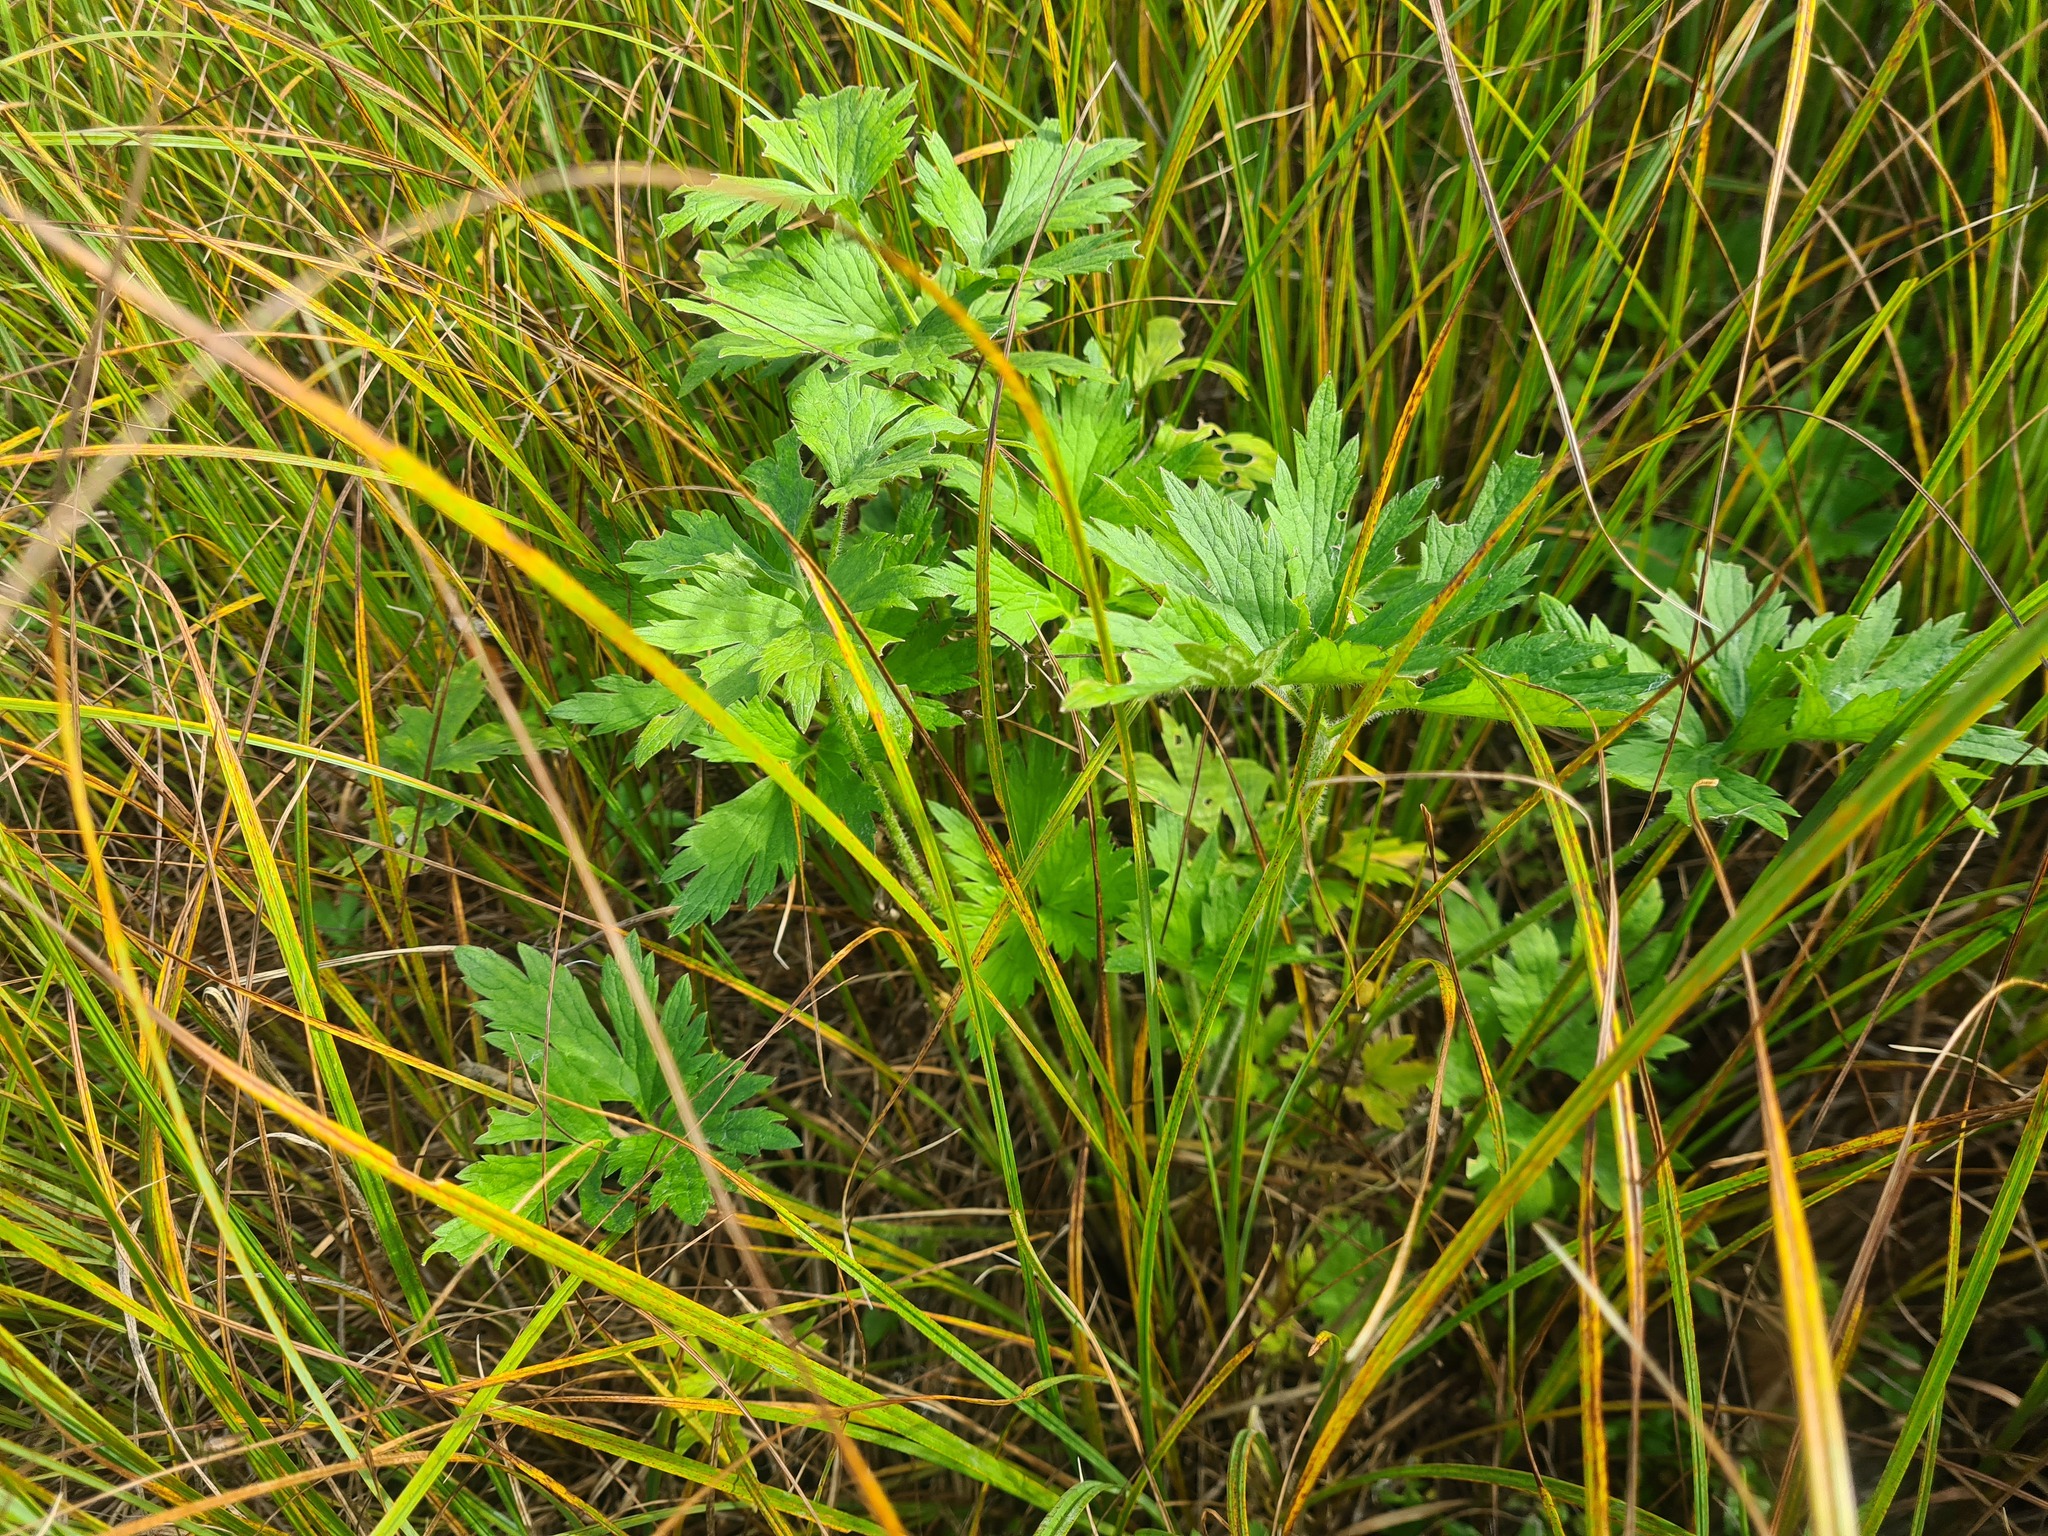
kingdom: Plantae
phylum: Tracheophyta
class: Magnoliopsida
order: Ranunculales
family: Ranunculaceae
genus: Ranunculus
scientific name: Ranunculus repens
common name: Creeping buttercup
